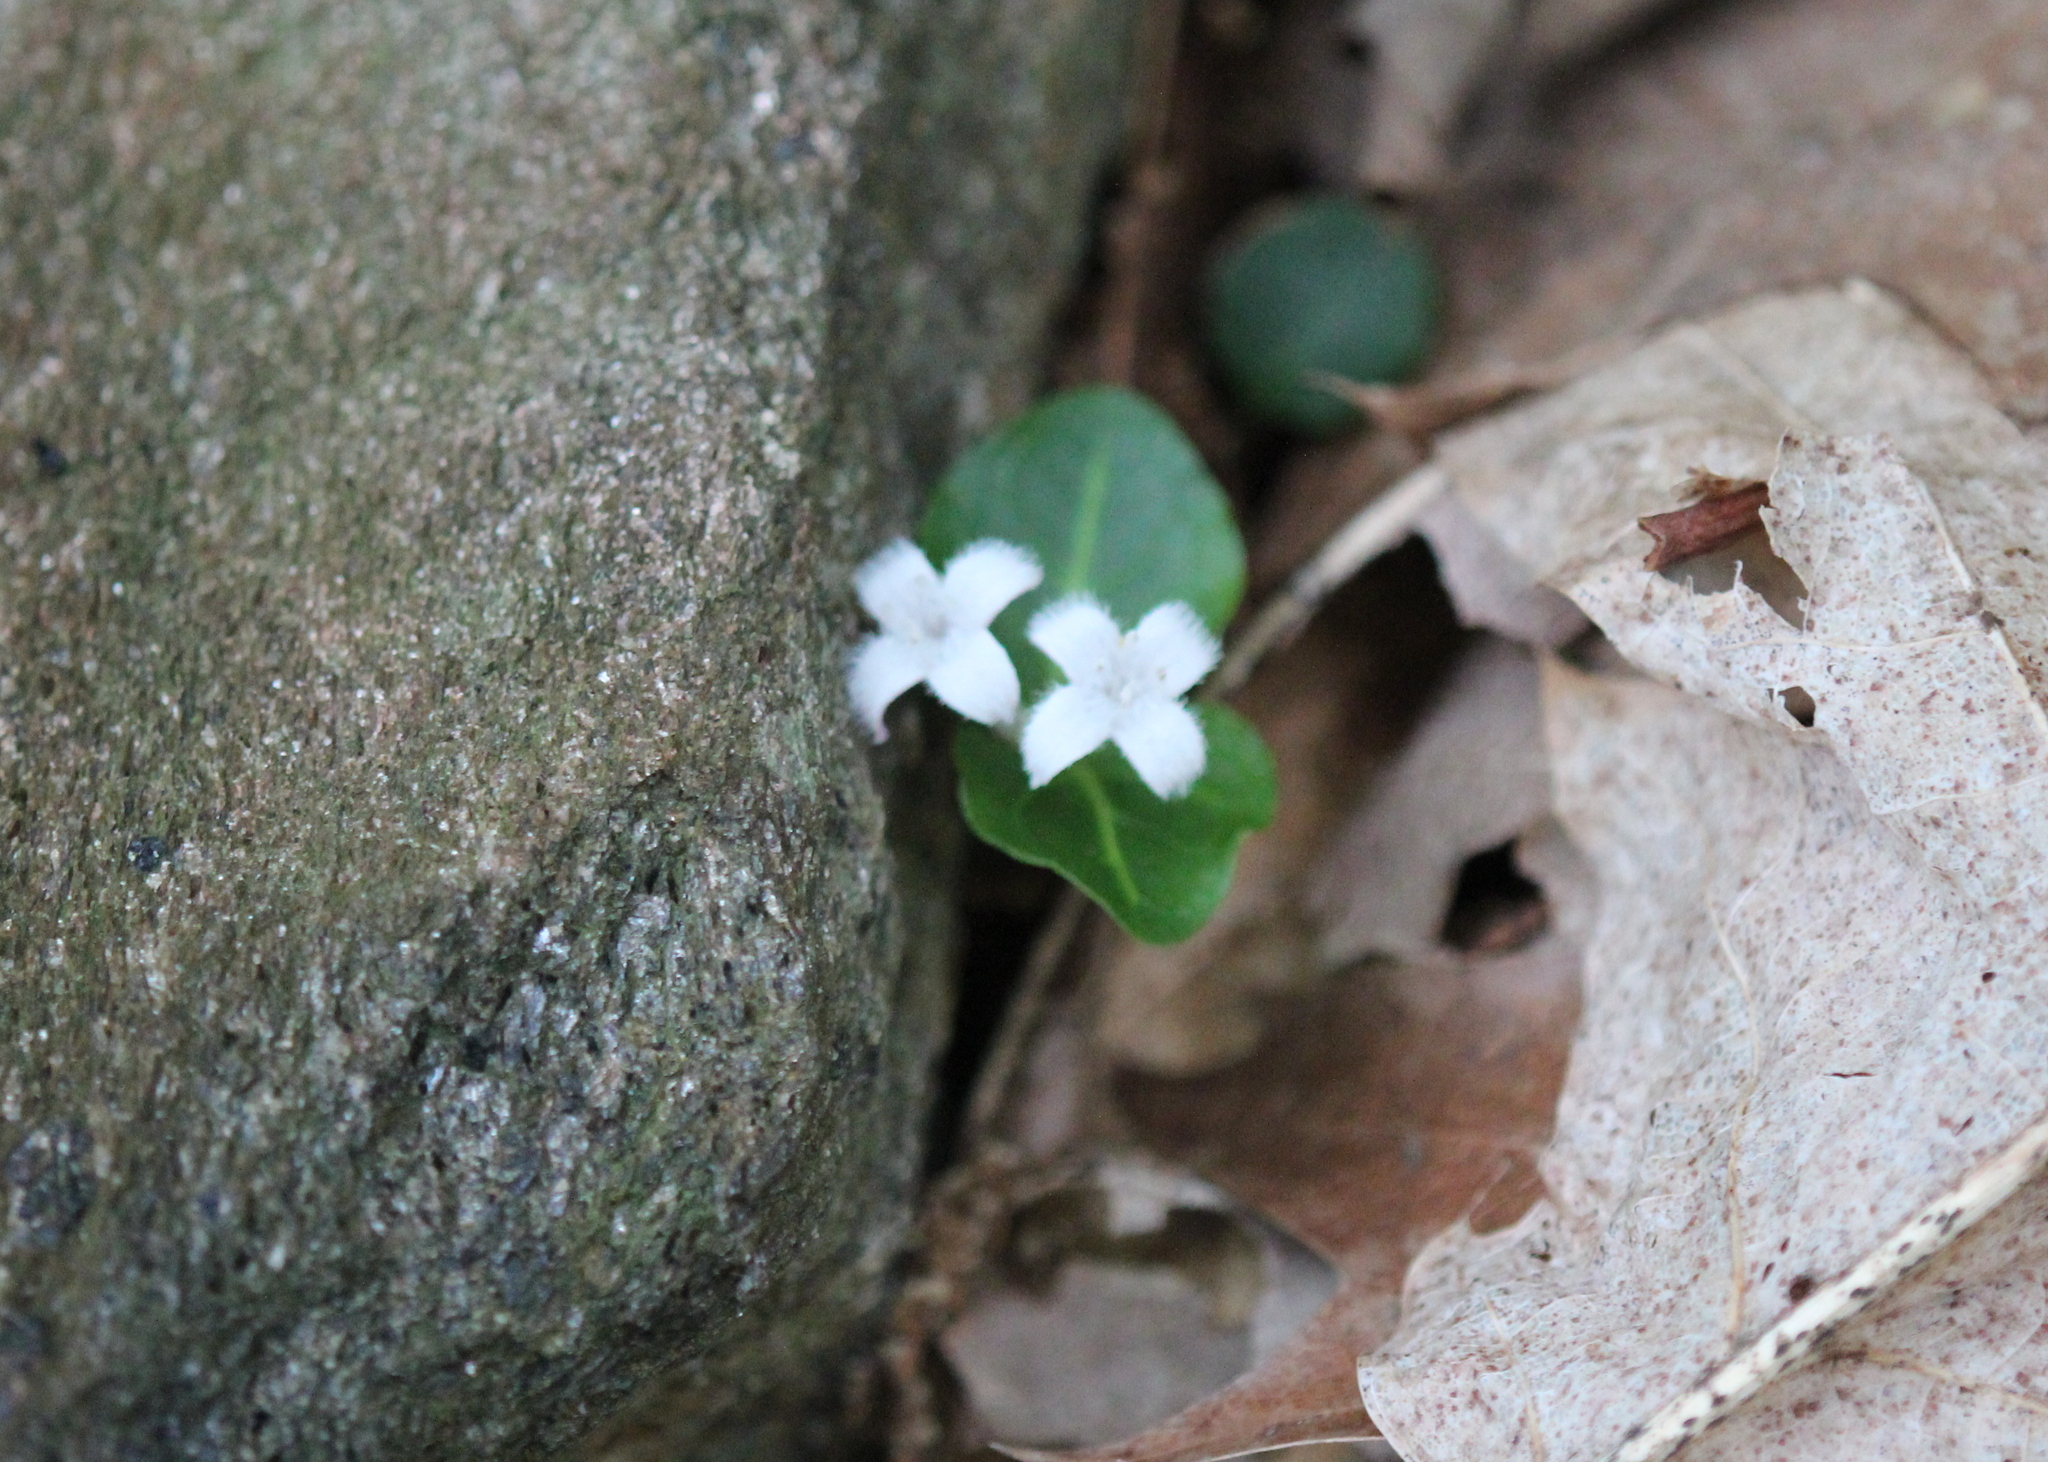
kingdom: Plantae
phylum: Tracheophyta
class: Magnoliopsida
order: Gentianales
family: Rubiaceae
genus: Mitchella
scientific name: Mitchella repens
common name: Partridge-berry
